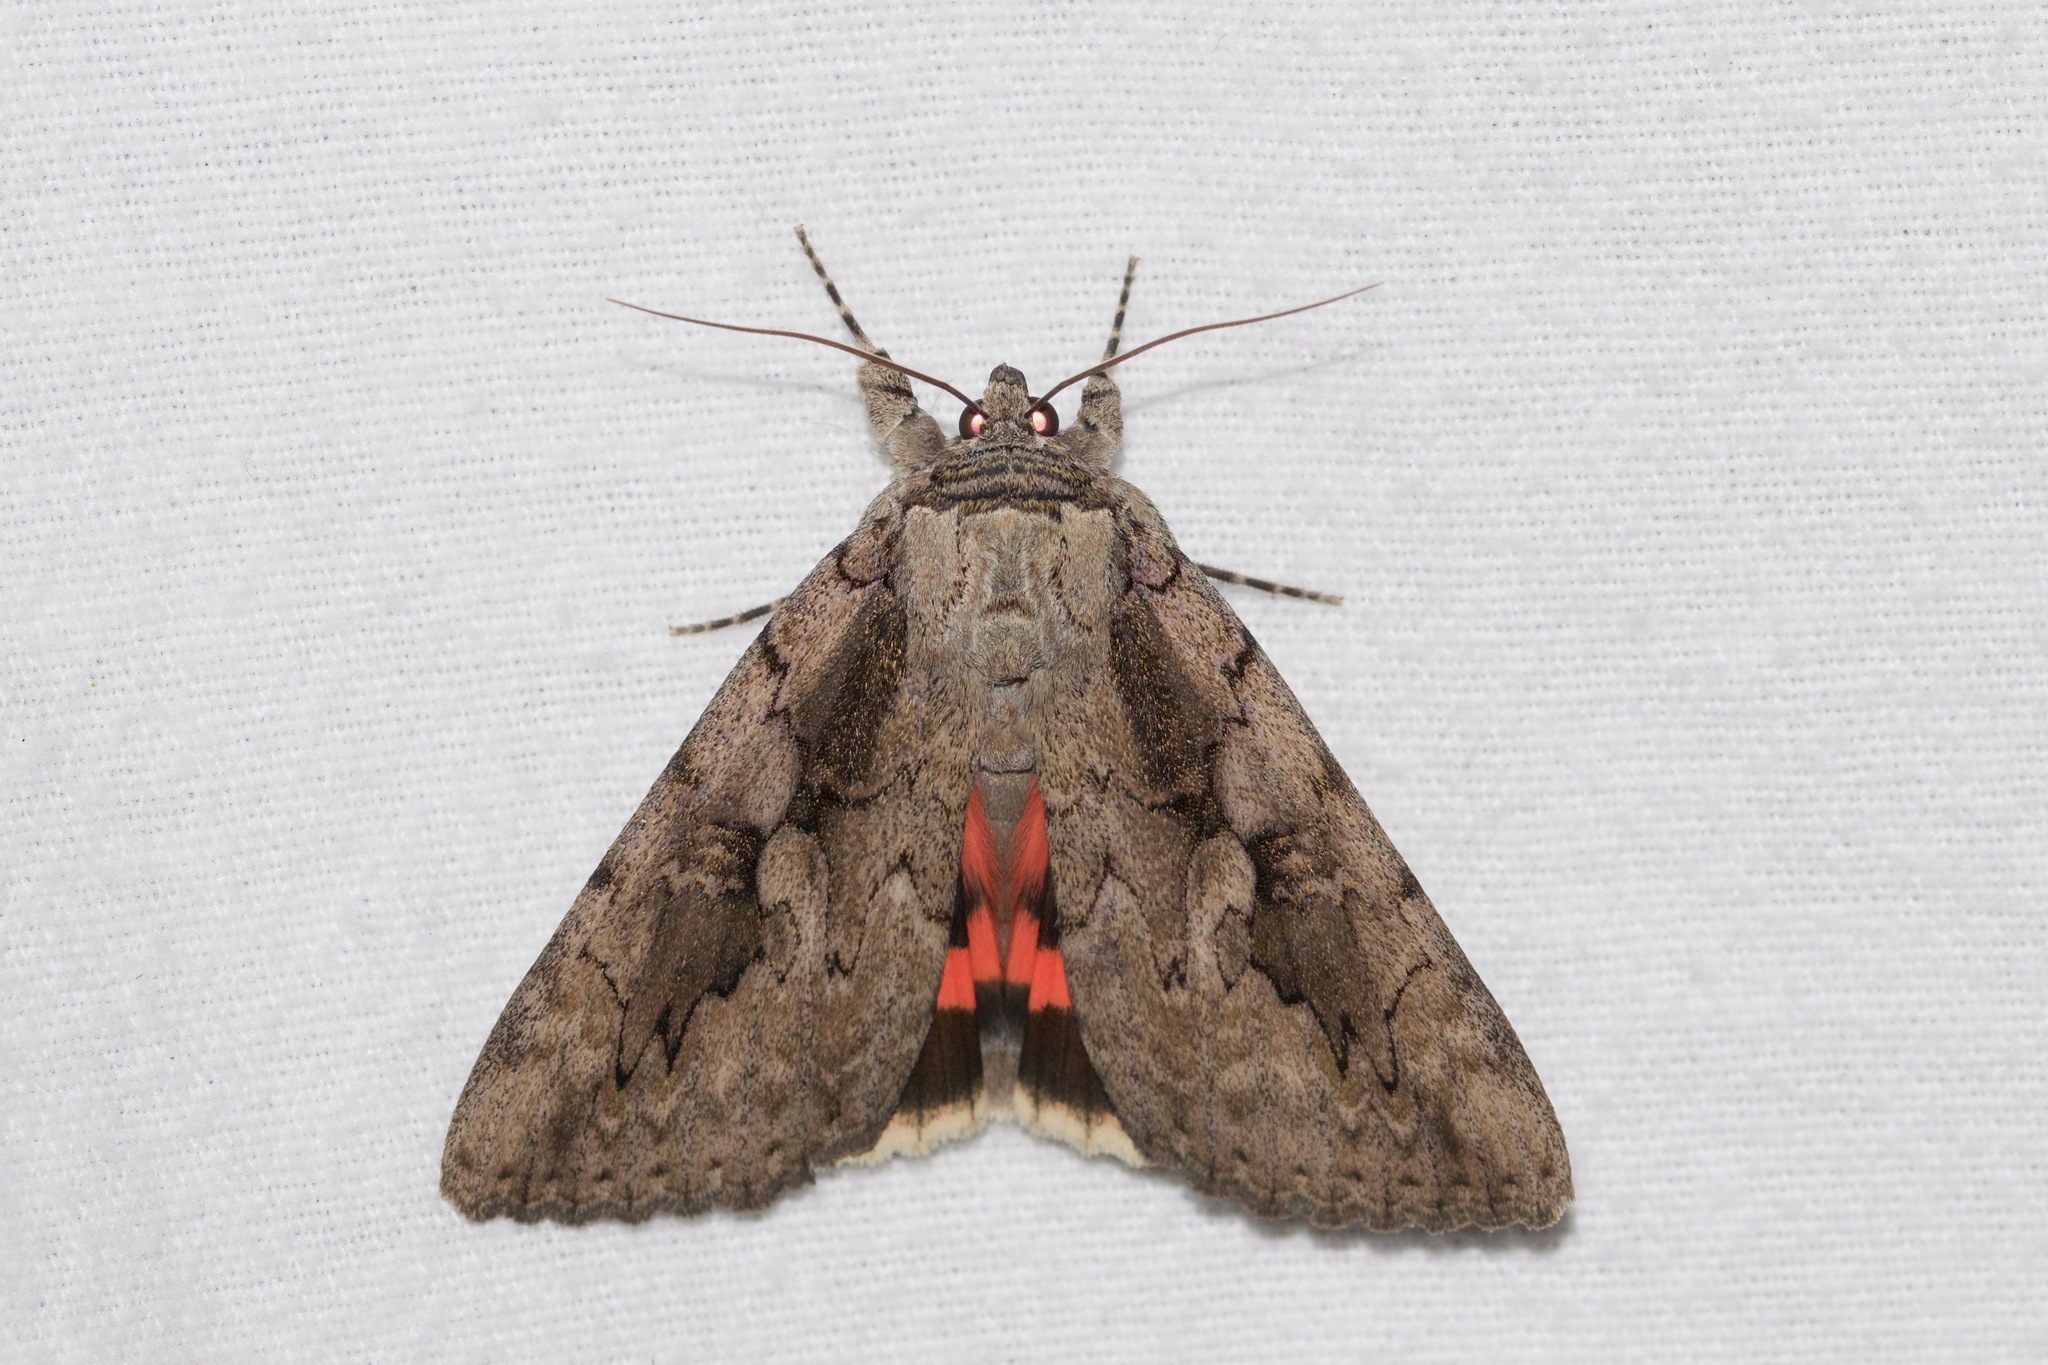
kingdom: Animalia
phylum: Arthropoda
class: Insecta
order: Lepidoptera
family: Erebidae
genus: Catocala
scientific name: Catocala amatrix
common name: Sweetheart underwing
